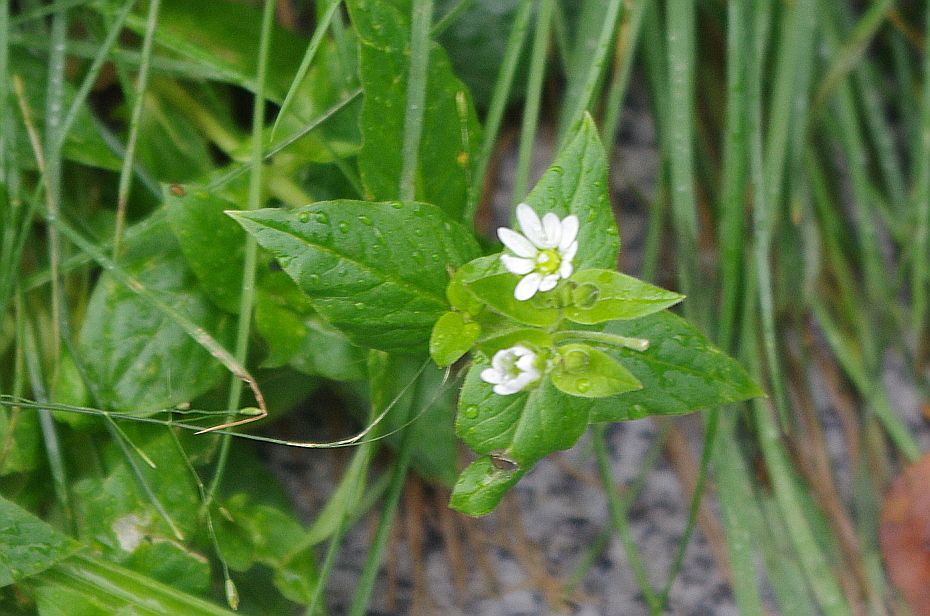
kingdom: Plantae
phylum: Tracheophyta
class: Magnoliopsida
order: Caryophyllales
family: Caryophyllaceae
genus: Stellaria
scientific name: Stellaria aquatica
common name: Water chickweed
